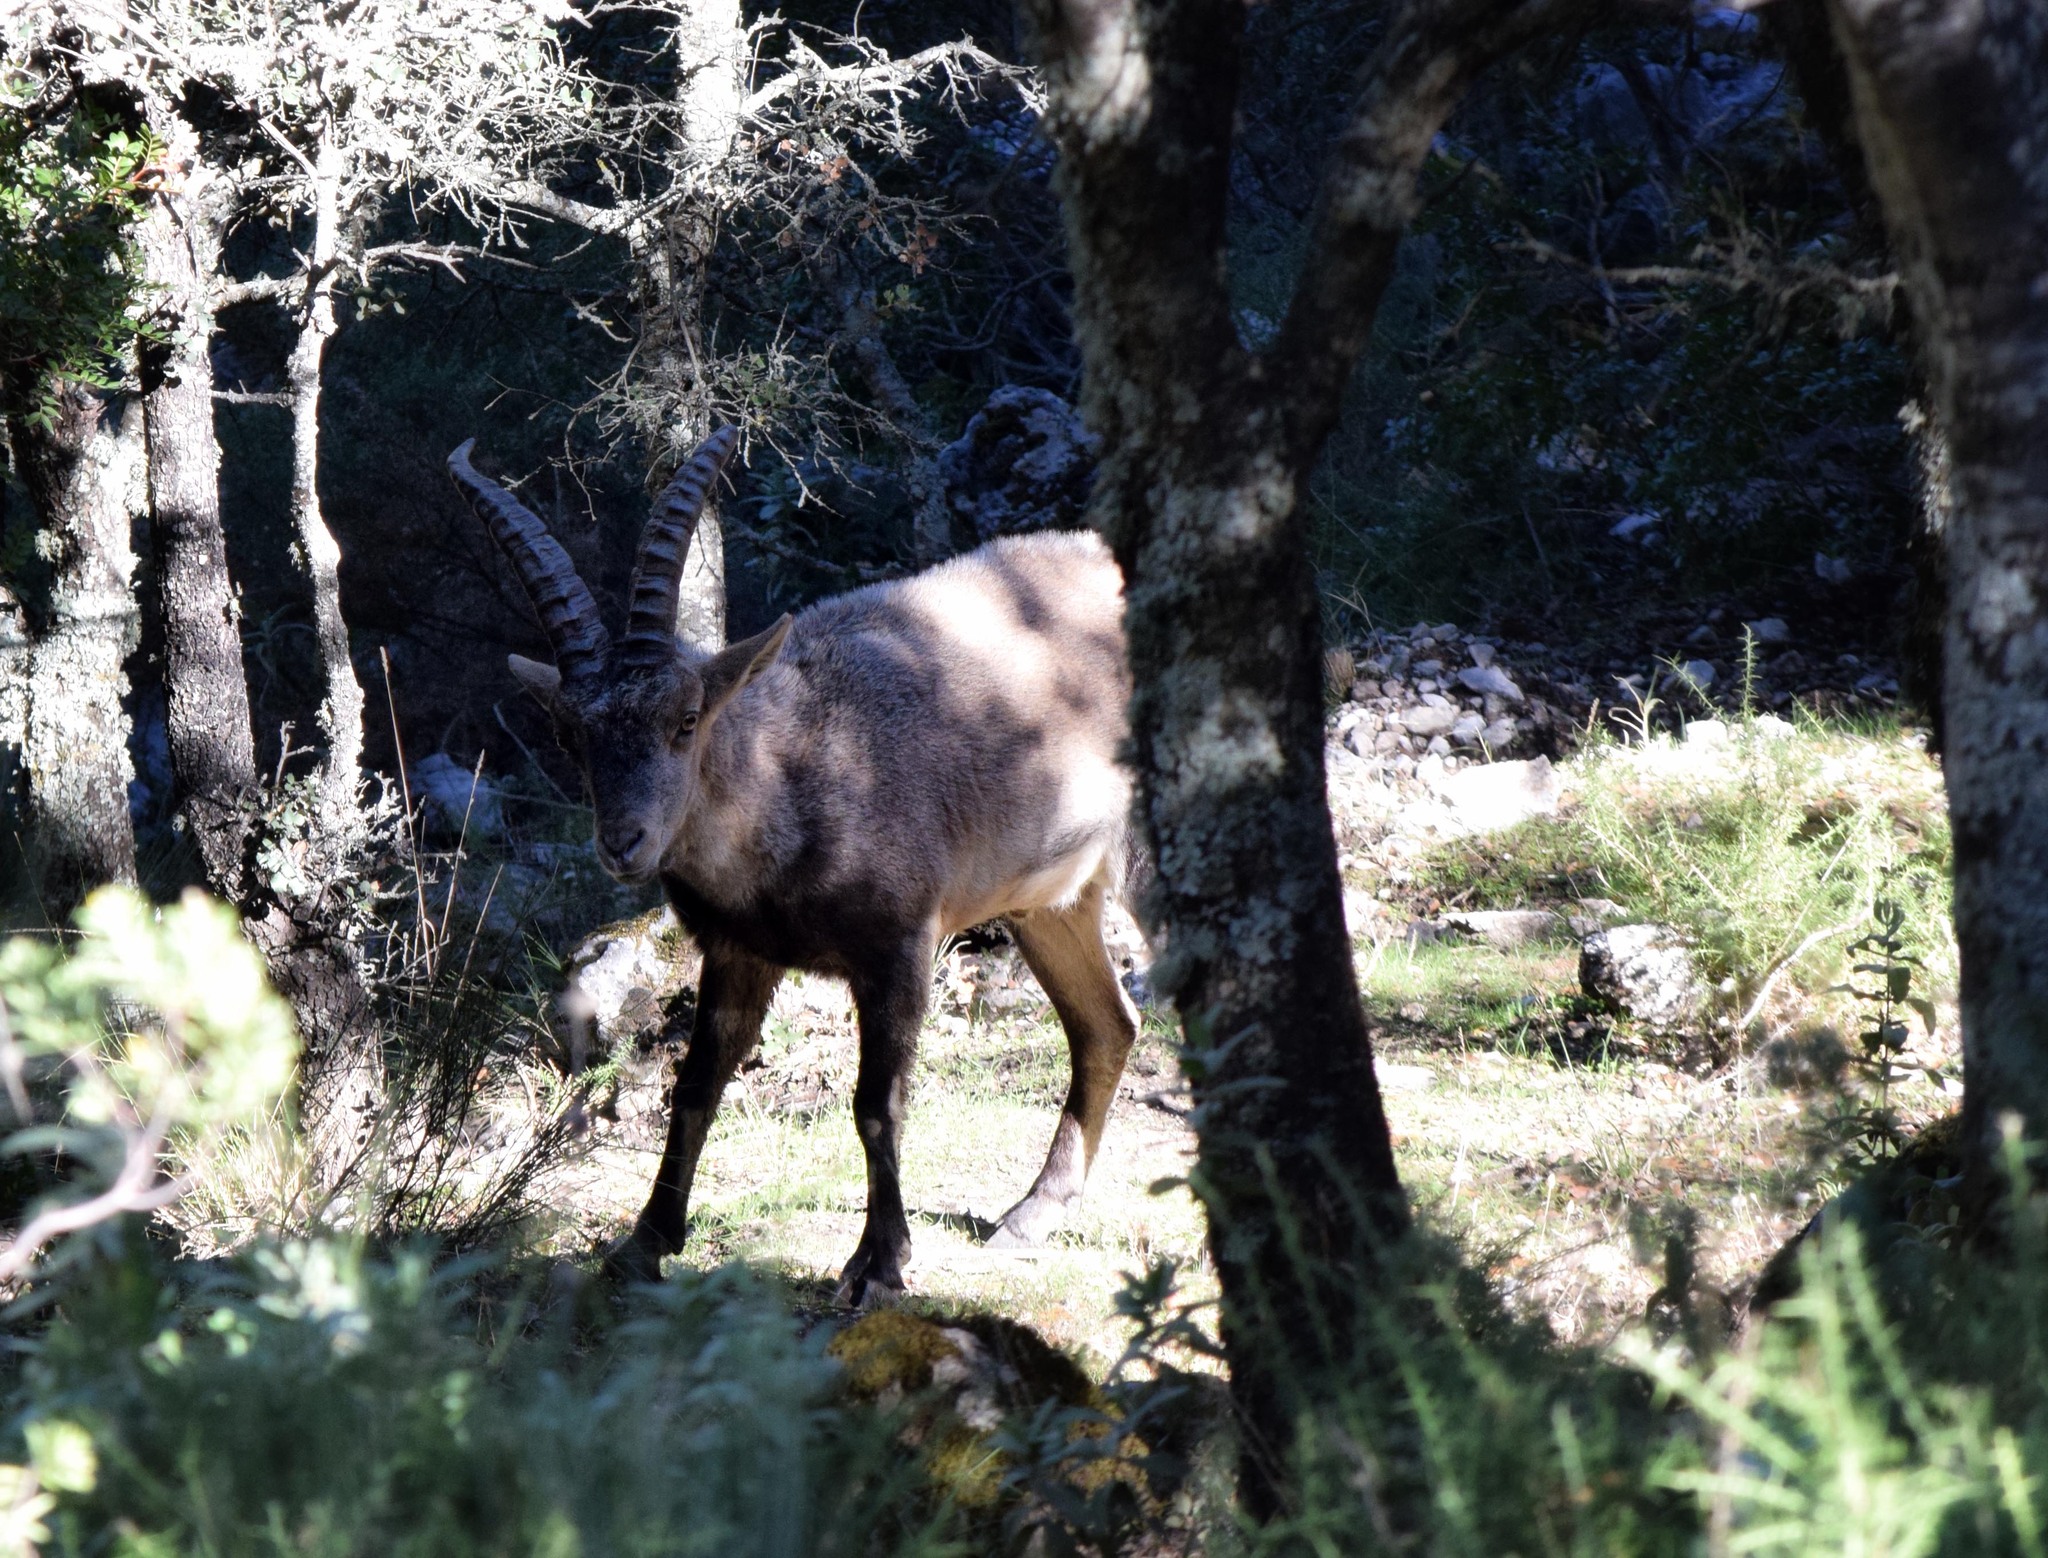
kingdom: Animalia
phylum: Chordata
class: Mammalia
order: Artiodactyla
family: Bovidae
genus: Capra
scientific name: Capra pyrenaica
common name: Spanish ibex
